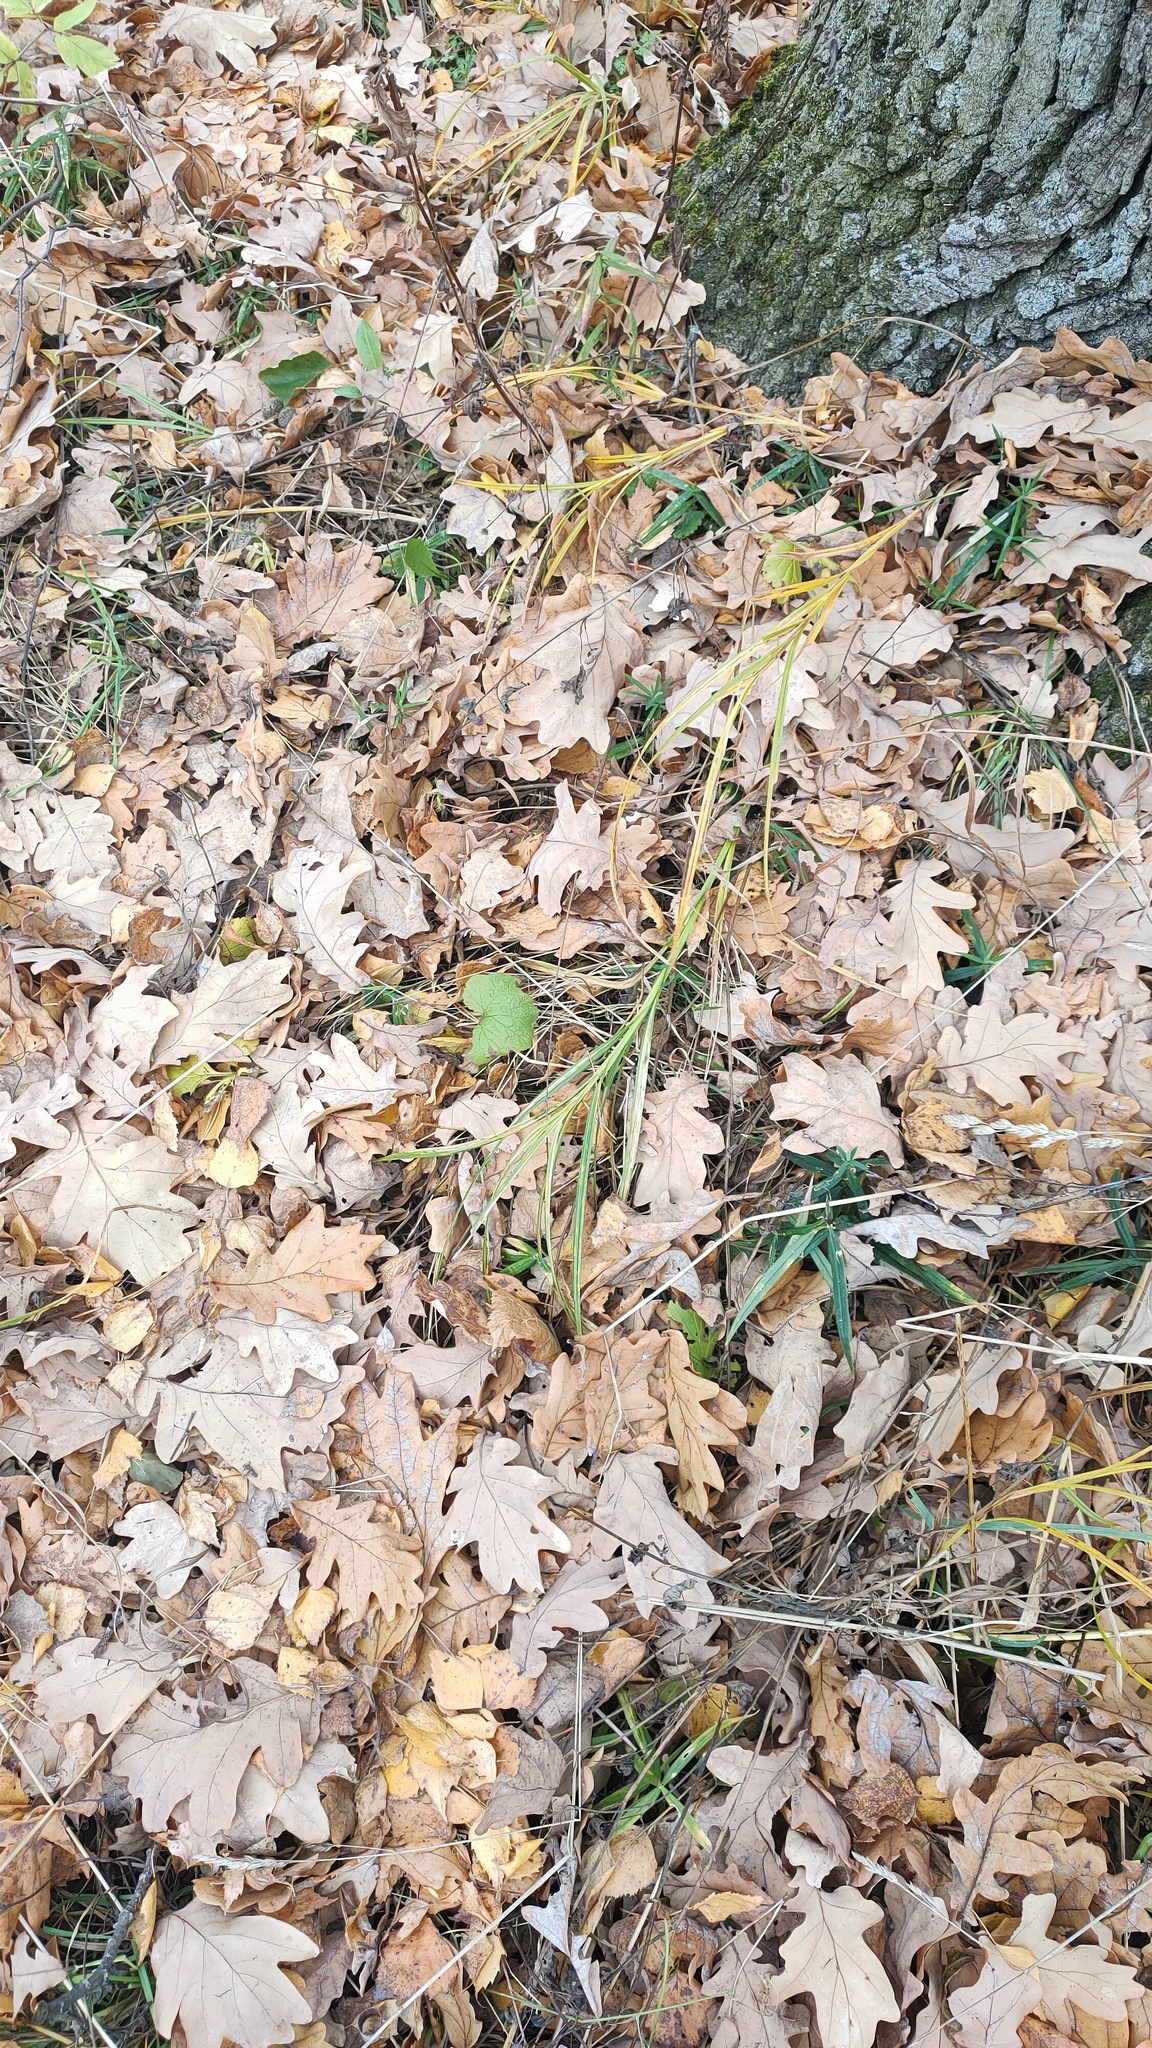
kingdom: Plantae
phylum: Tracheophyta
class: Magnoliopsida
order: Fagales
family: Fagaceae
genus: Quercus
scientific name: Quercus robur
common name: Pedunculate oak
